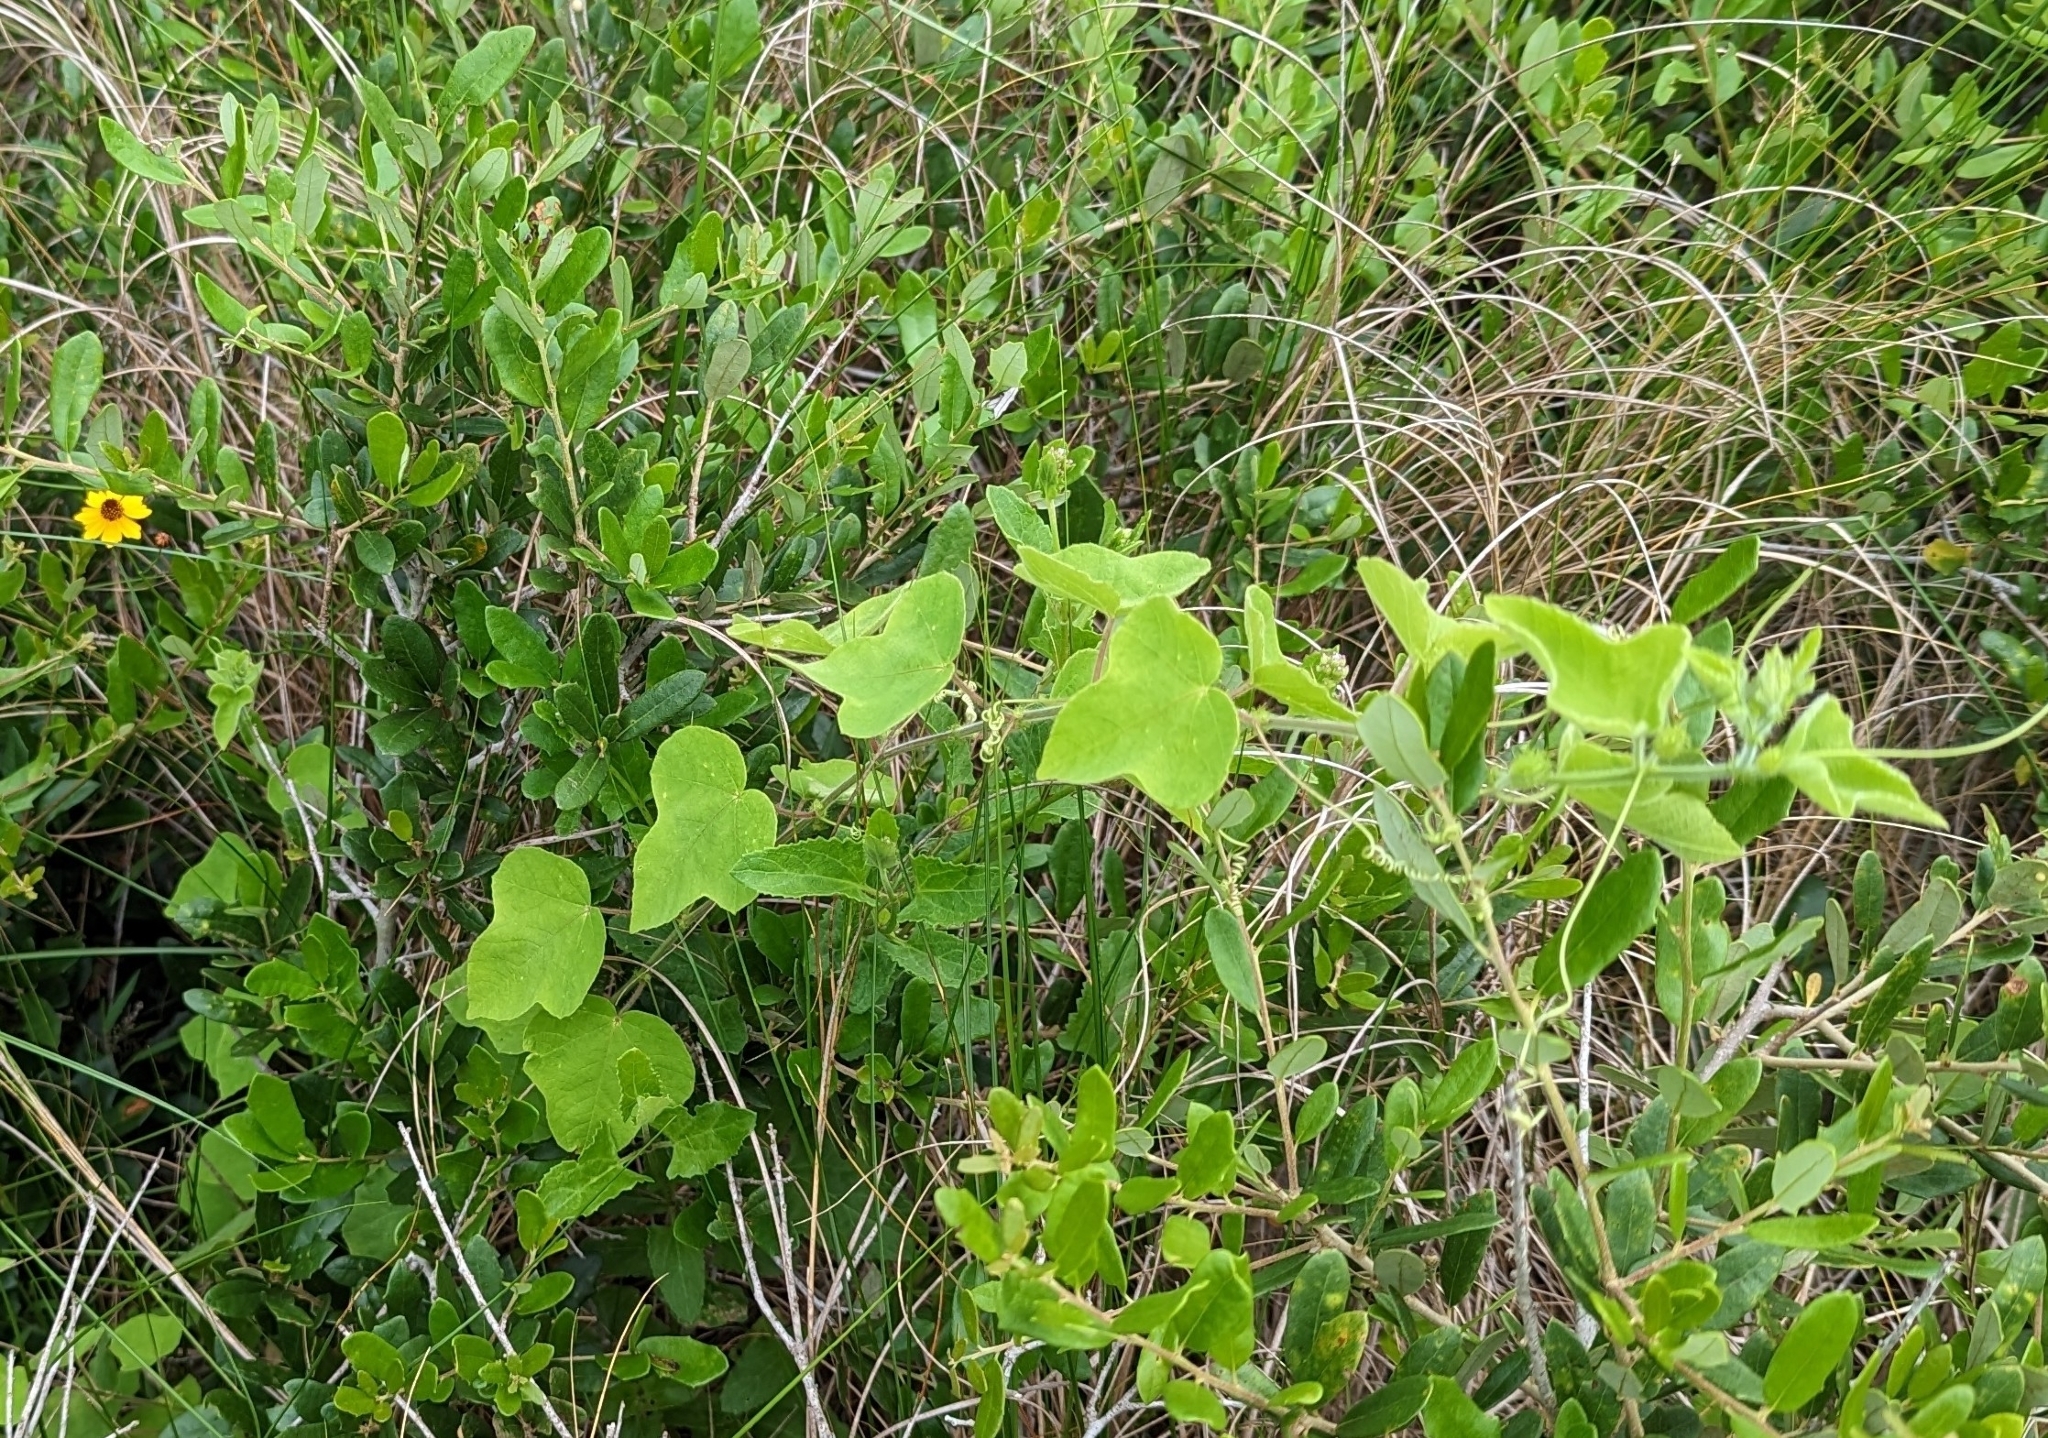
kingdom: Plantae
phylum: Tracheophyta
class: Magnoliopsida
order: Malpighiales
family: Passifloraceae
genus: Passiflora
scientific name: Passiflora foetida
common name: Fetid passionflower
